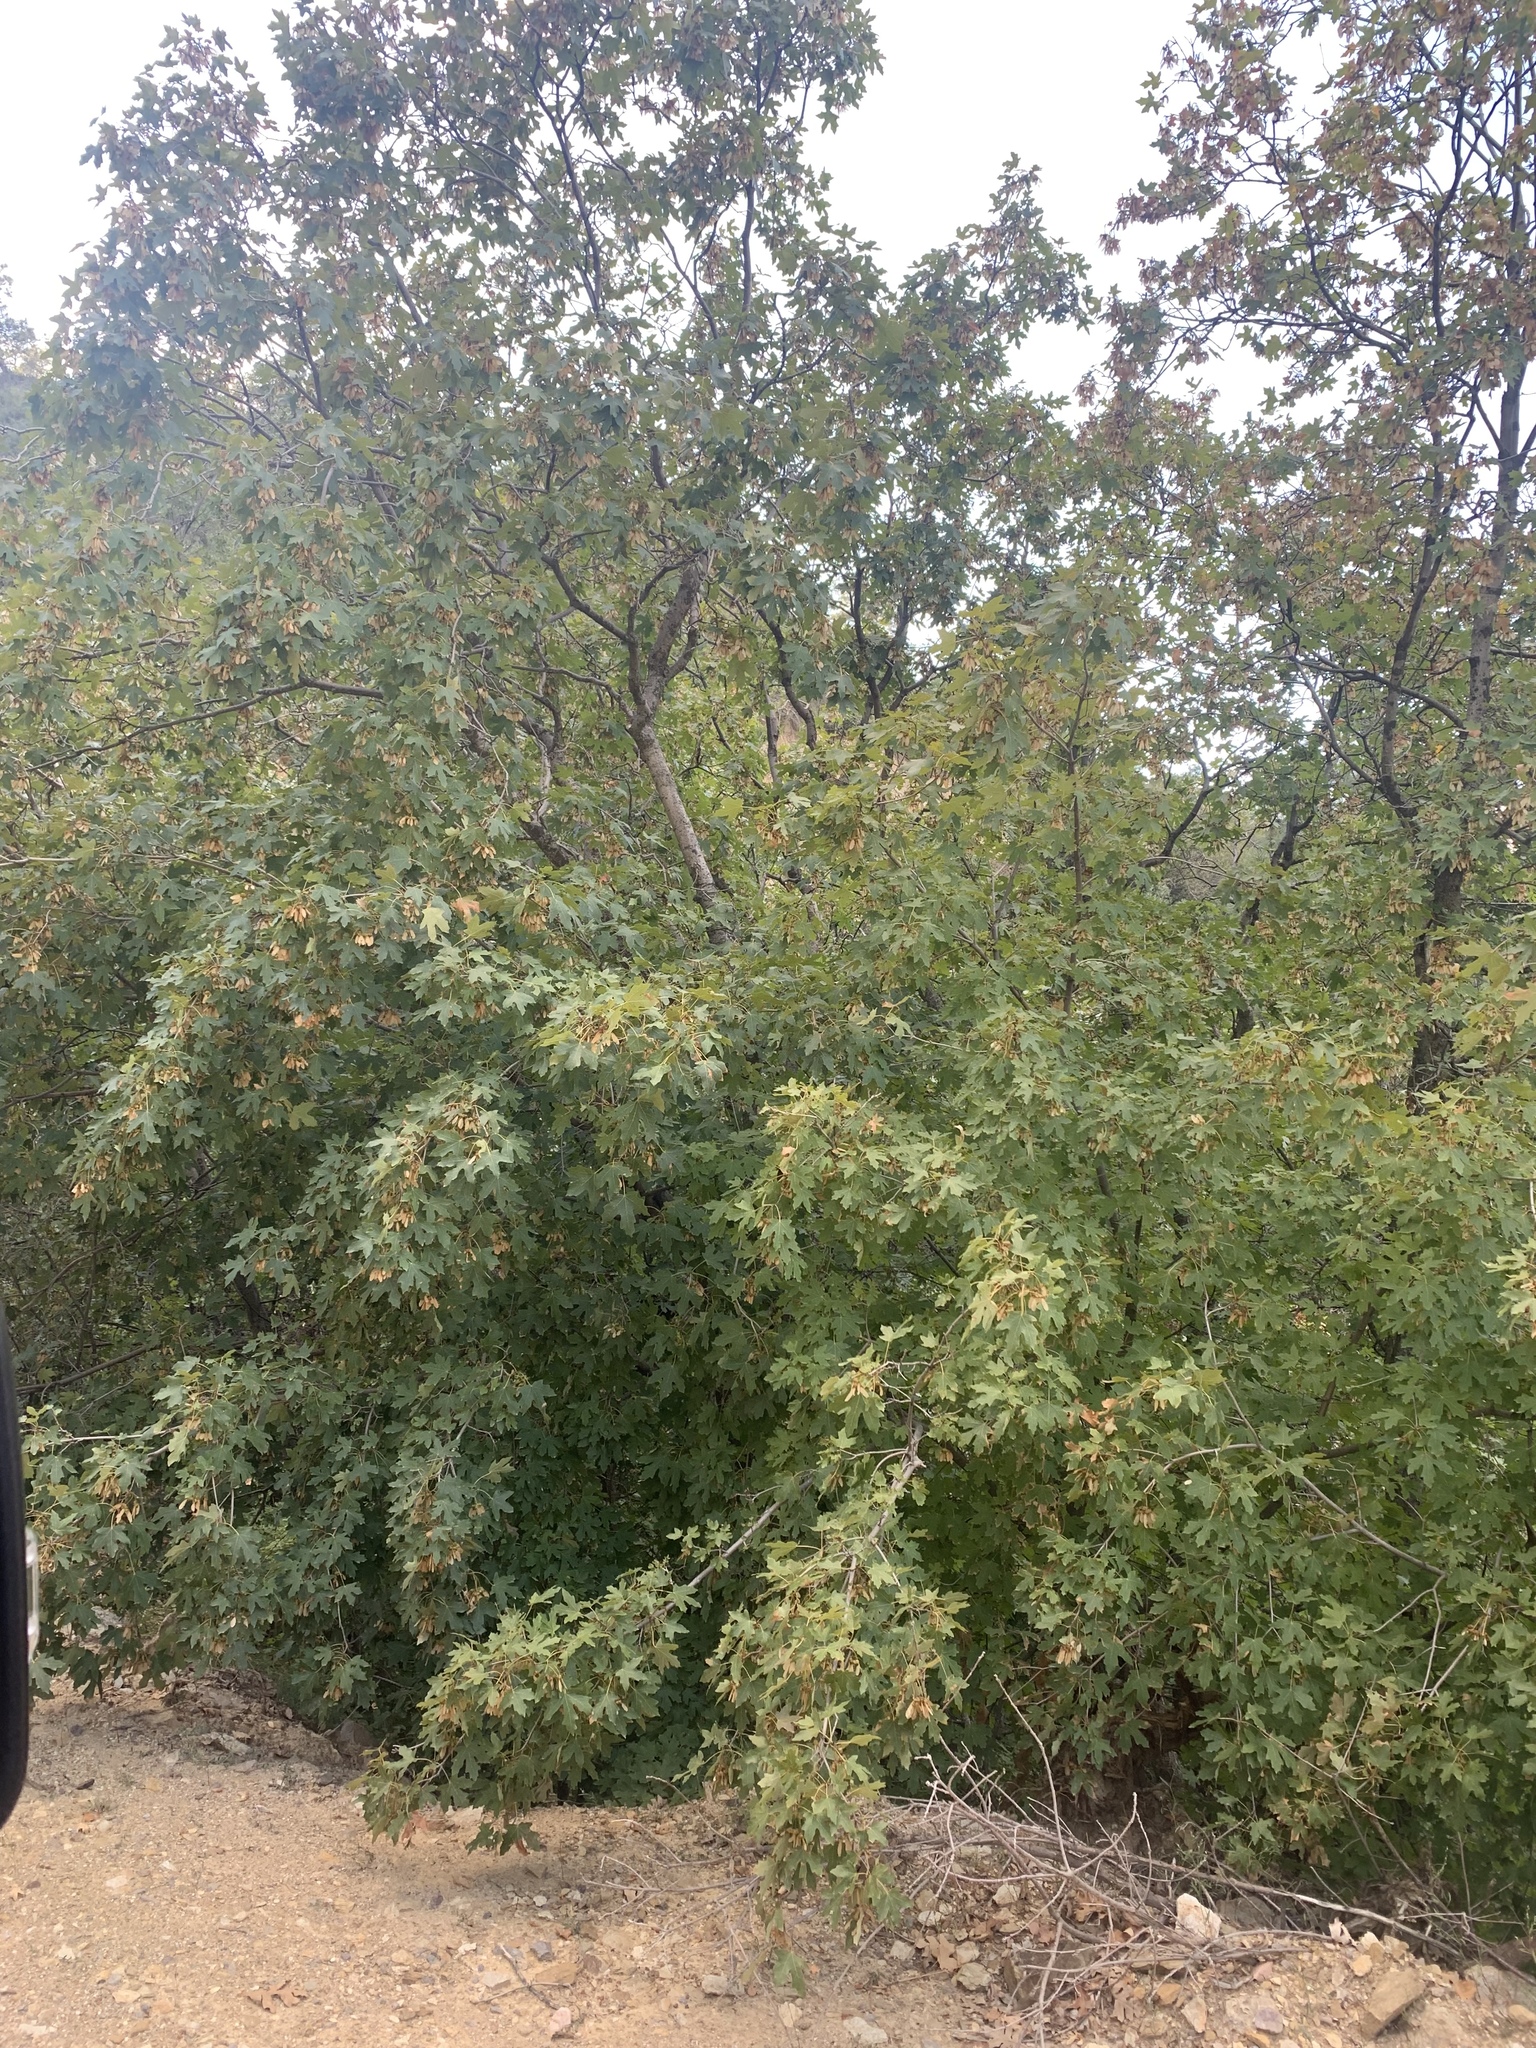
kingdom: Plantae
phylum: Tracheophyta
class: Magnoliopsida
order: Sapindales
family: Sapindaceae
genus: Acer
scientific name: Acer grandidentatum
